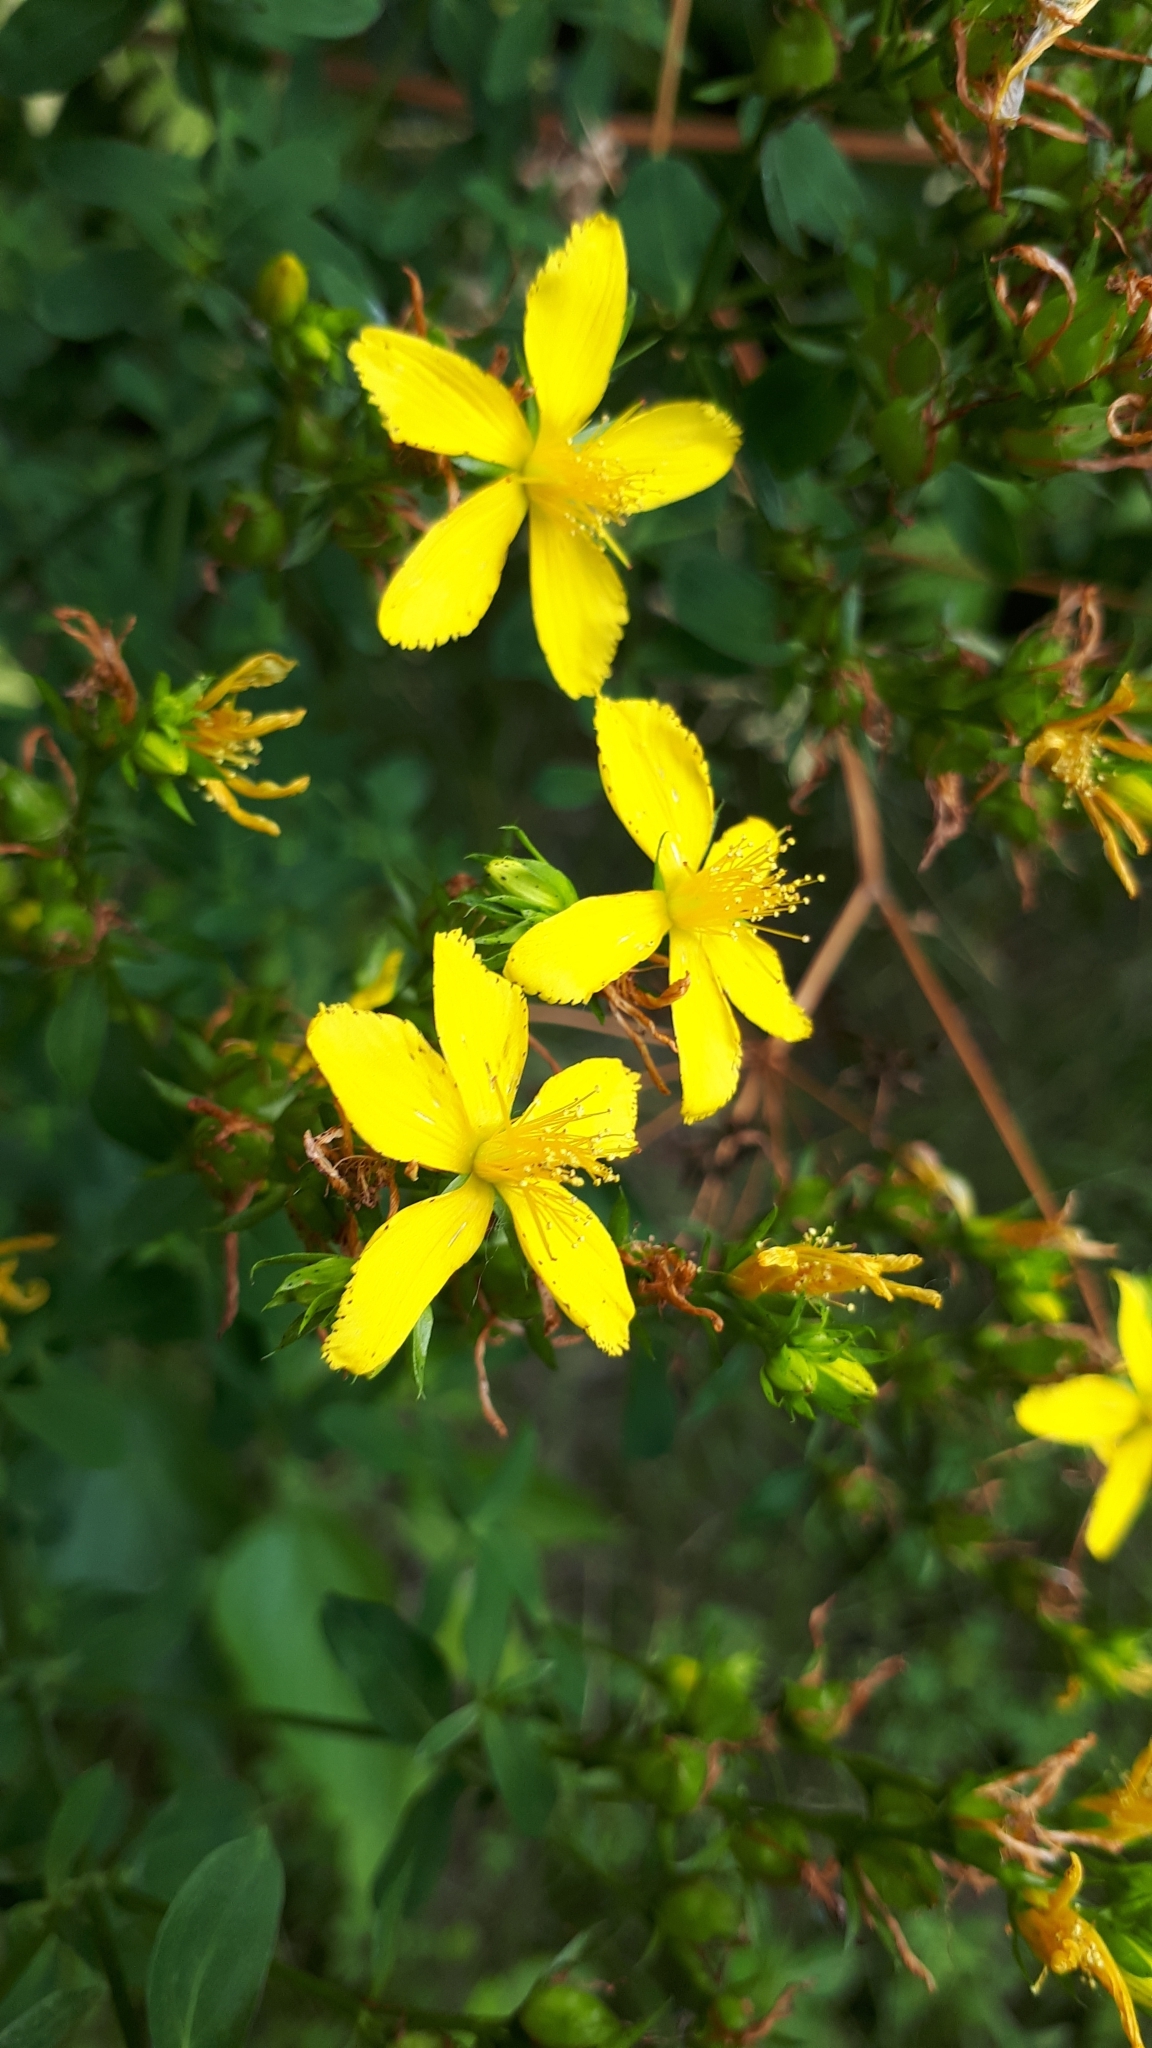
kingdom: Plantae
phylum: Tracheophyta
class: Magnoliopsida
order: Malpighiales
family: Hypericaceae
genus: Hypericum
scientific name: Hypericum perforatum
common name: Common st. johnswort
